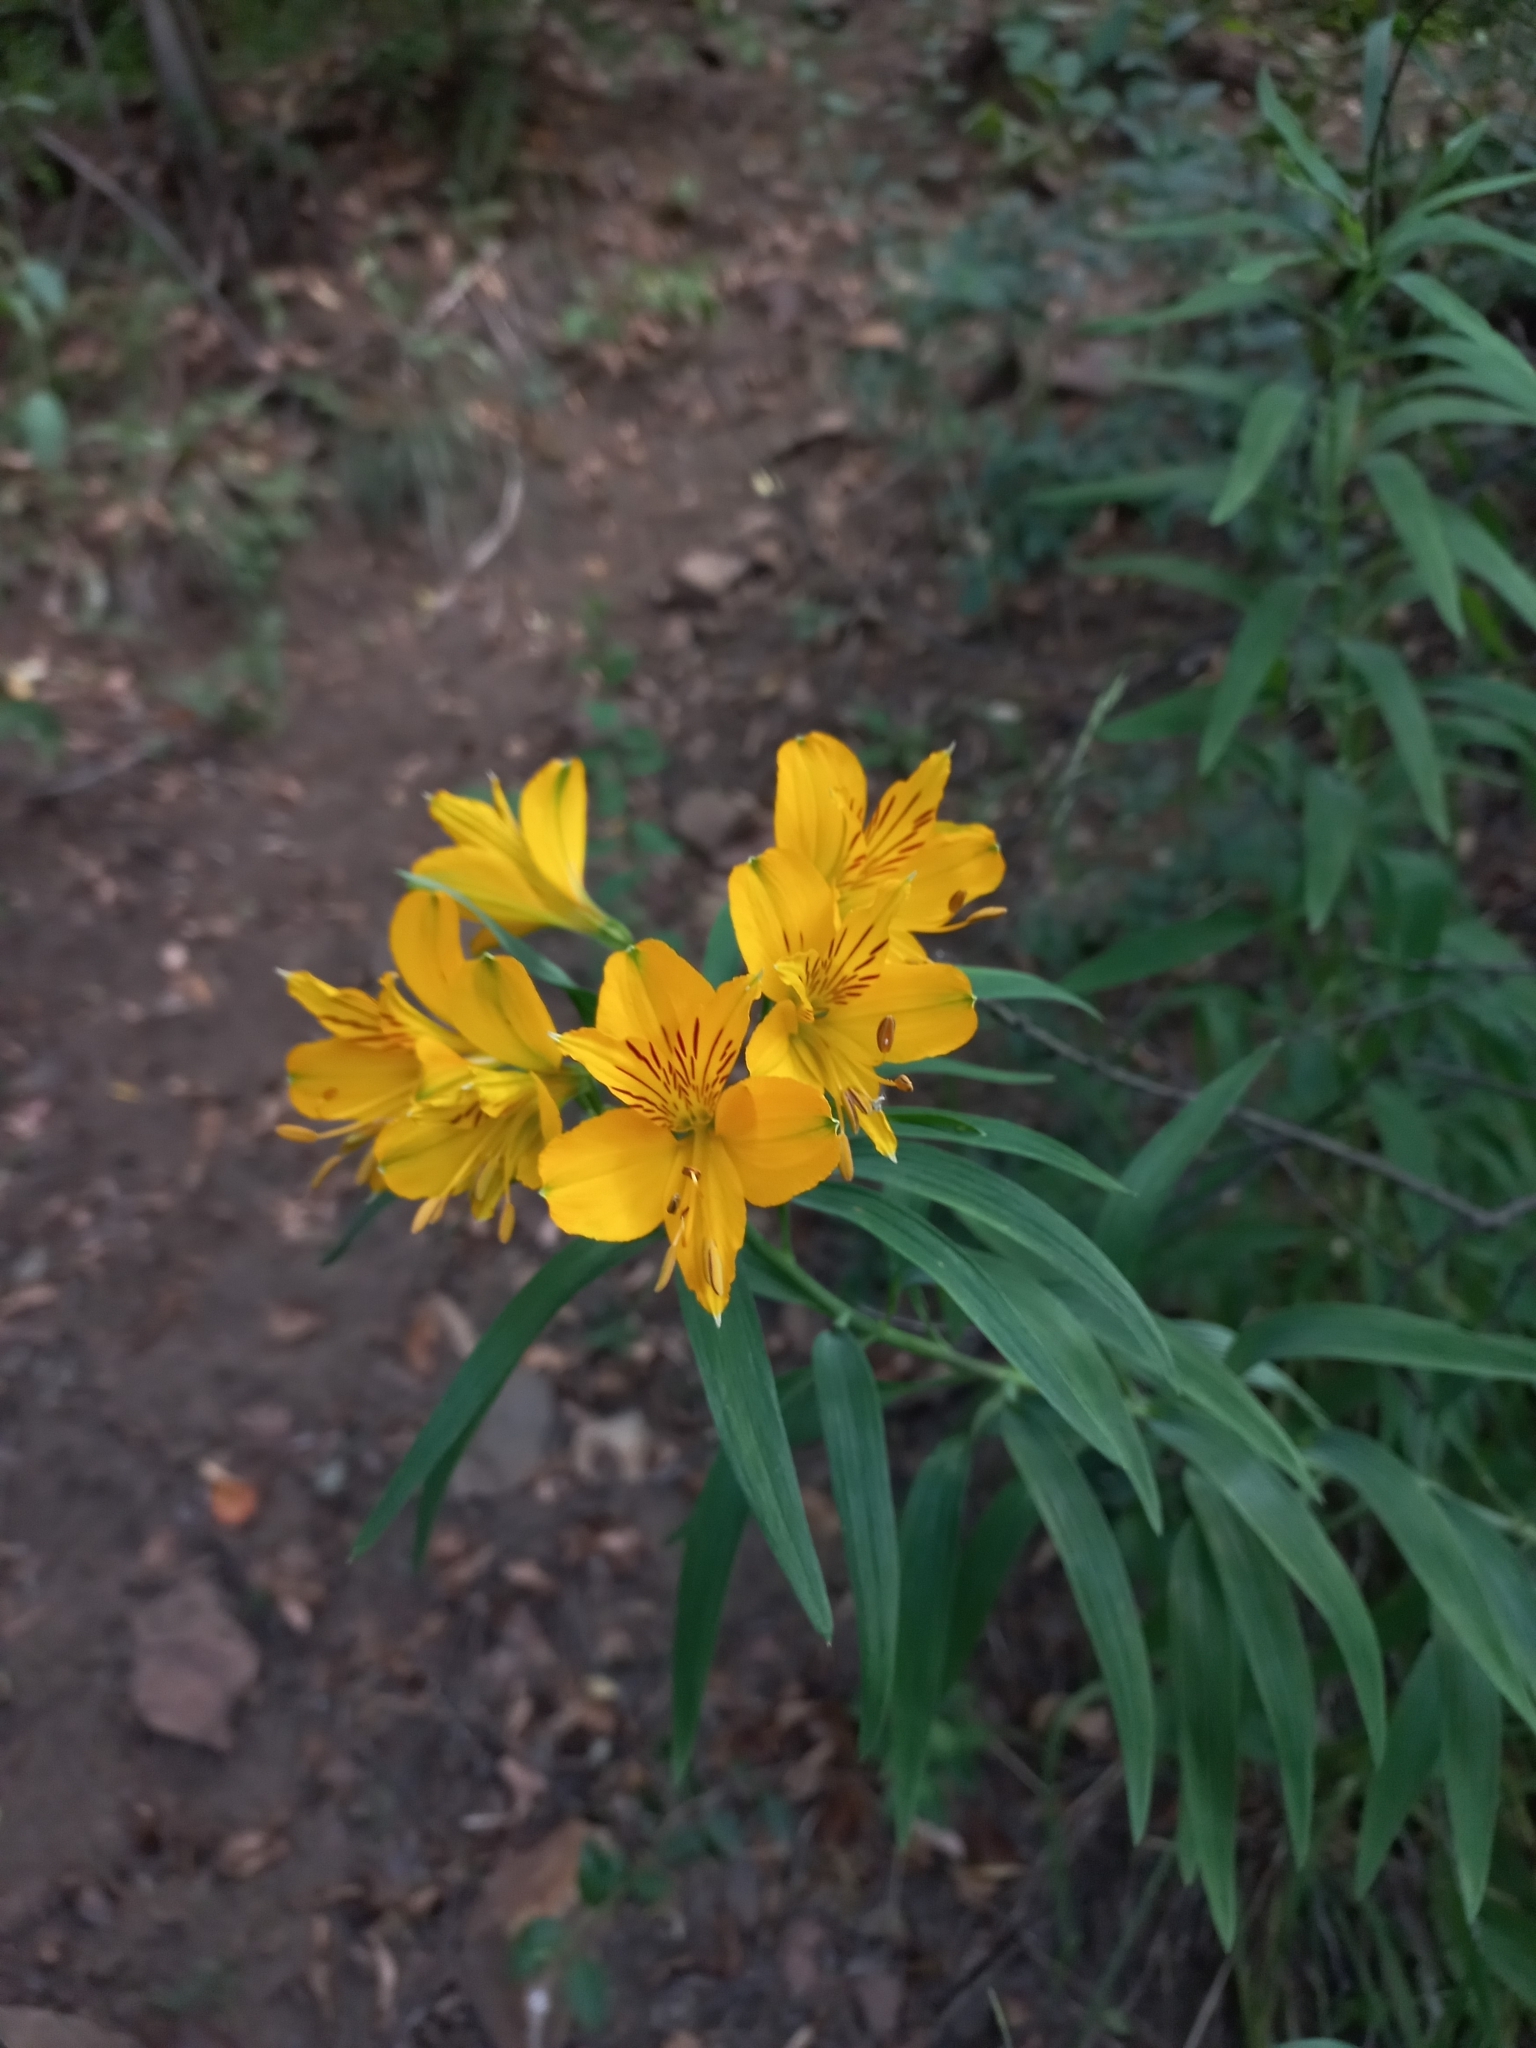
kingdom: Plantae
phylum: Tracheophyta
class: Liliopsida
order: Liliales
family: Alstroemeriaceae
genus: Alstroemeria
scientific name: Alstroemeria aurea
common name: Peruvian lily
